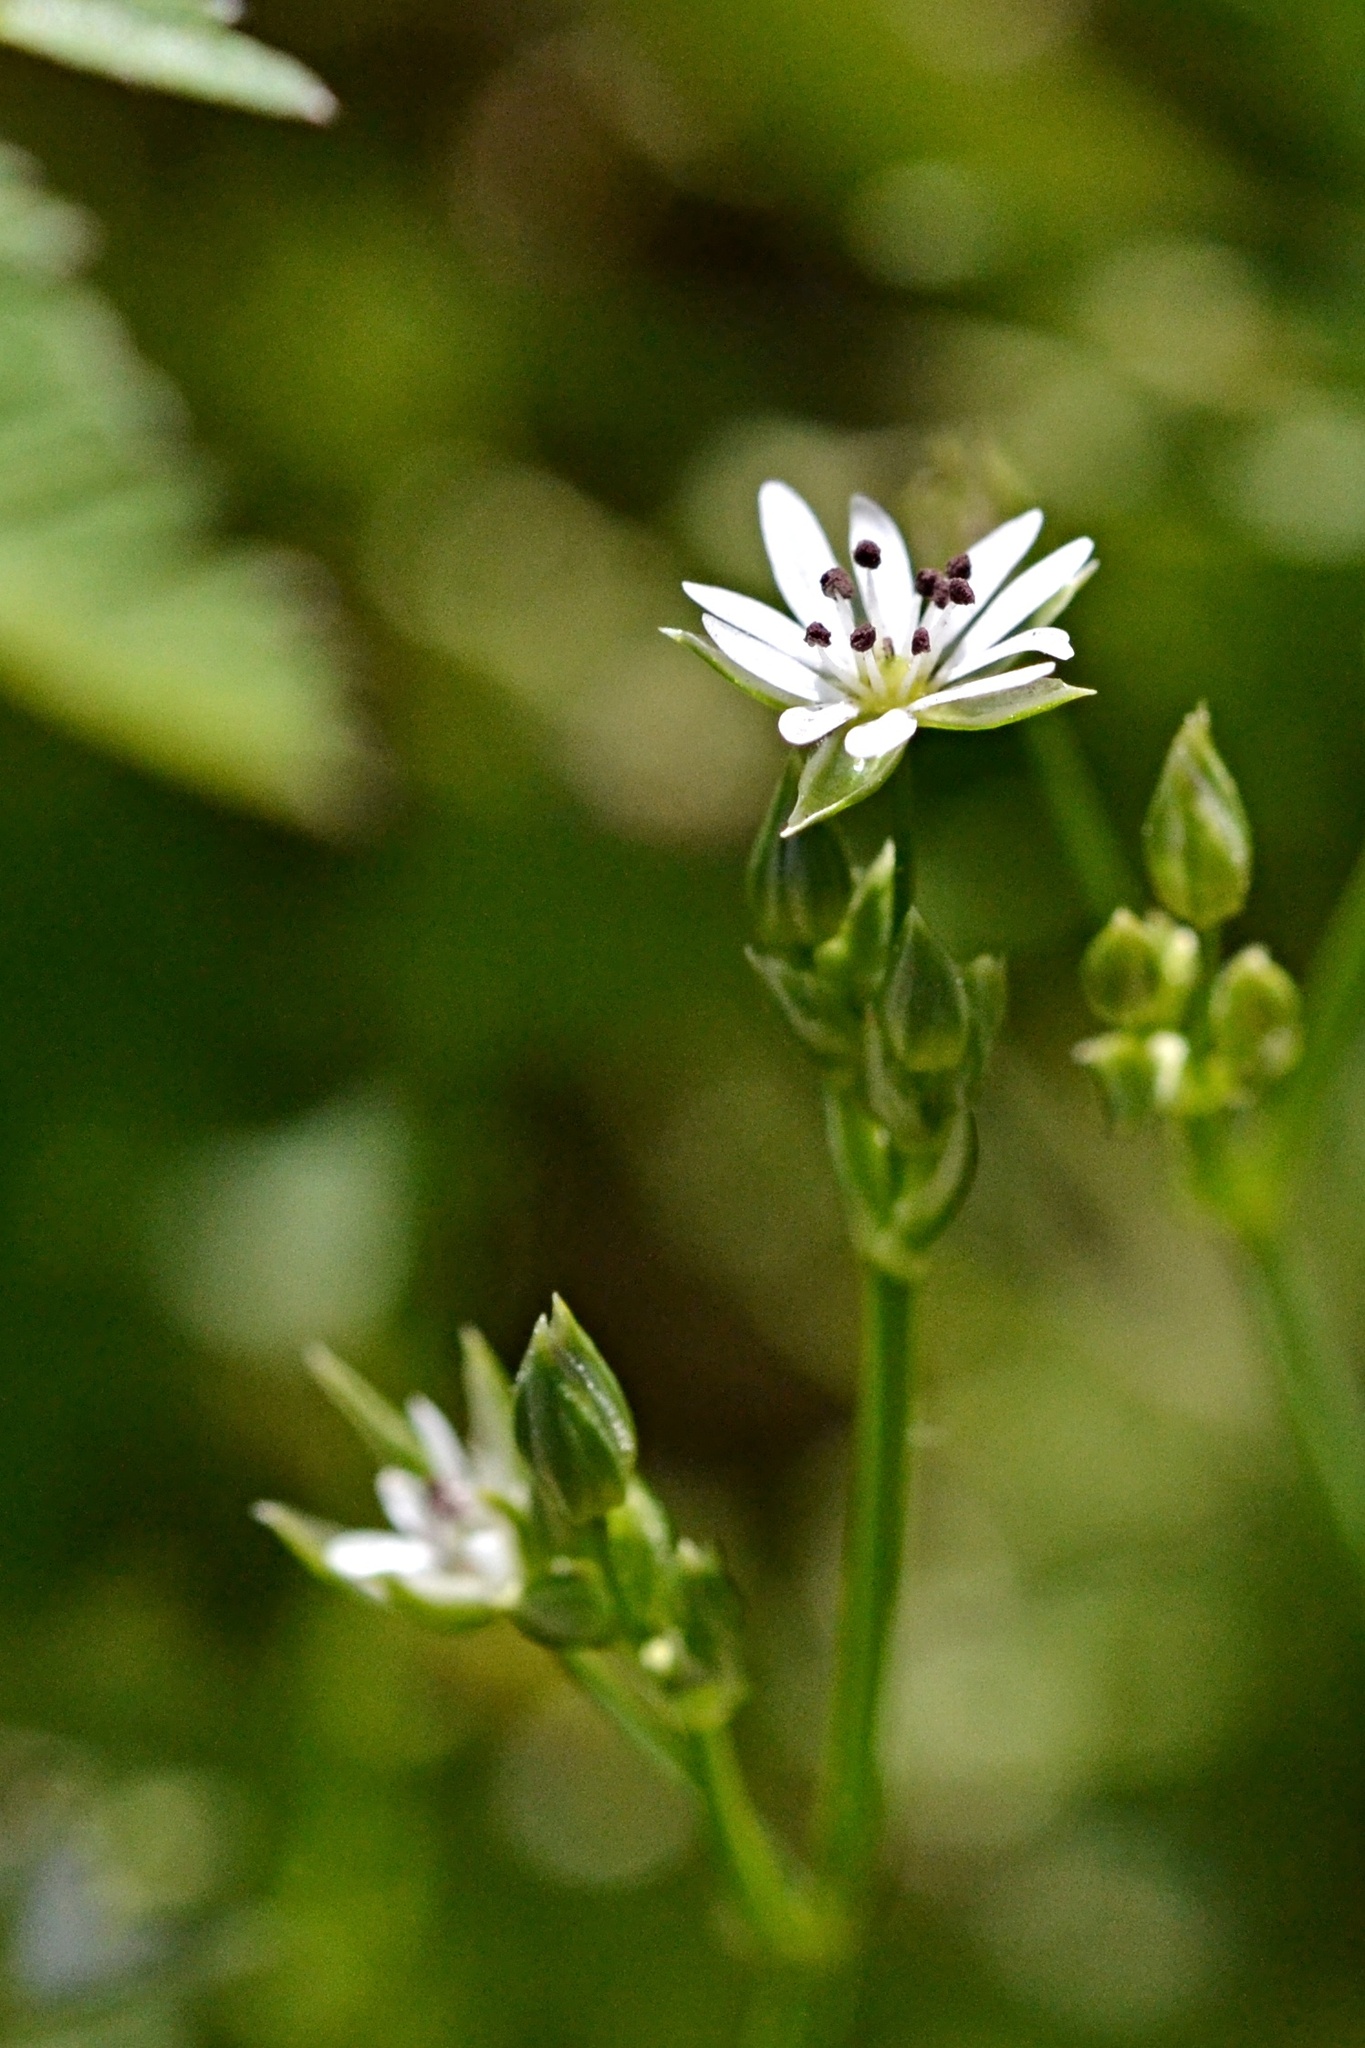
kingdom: Plantae
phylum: Tracheophyta
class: Magnoliopsida
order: Caryophyllales
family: Caryophyllaceae
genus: Stellaria
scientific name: Stellaria graminea
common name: Grass-like starwort
